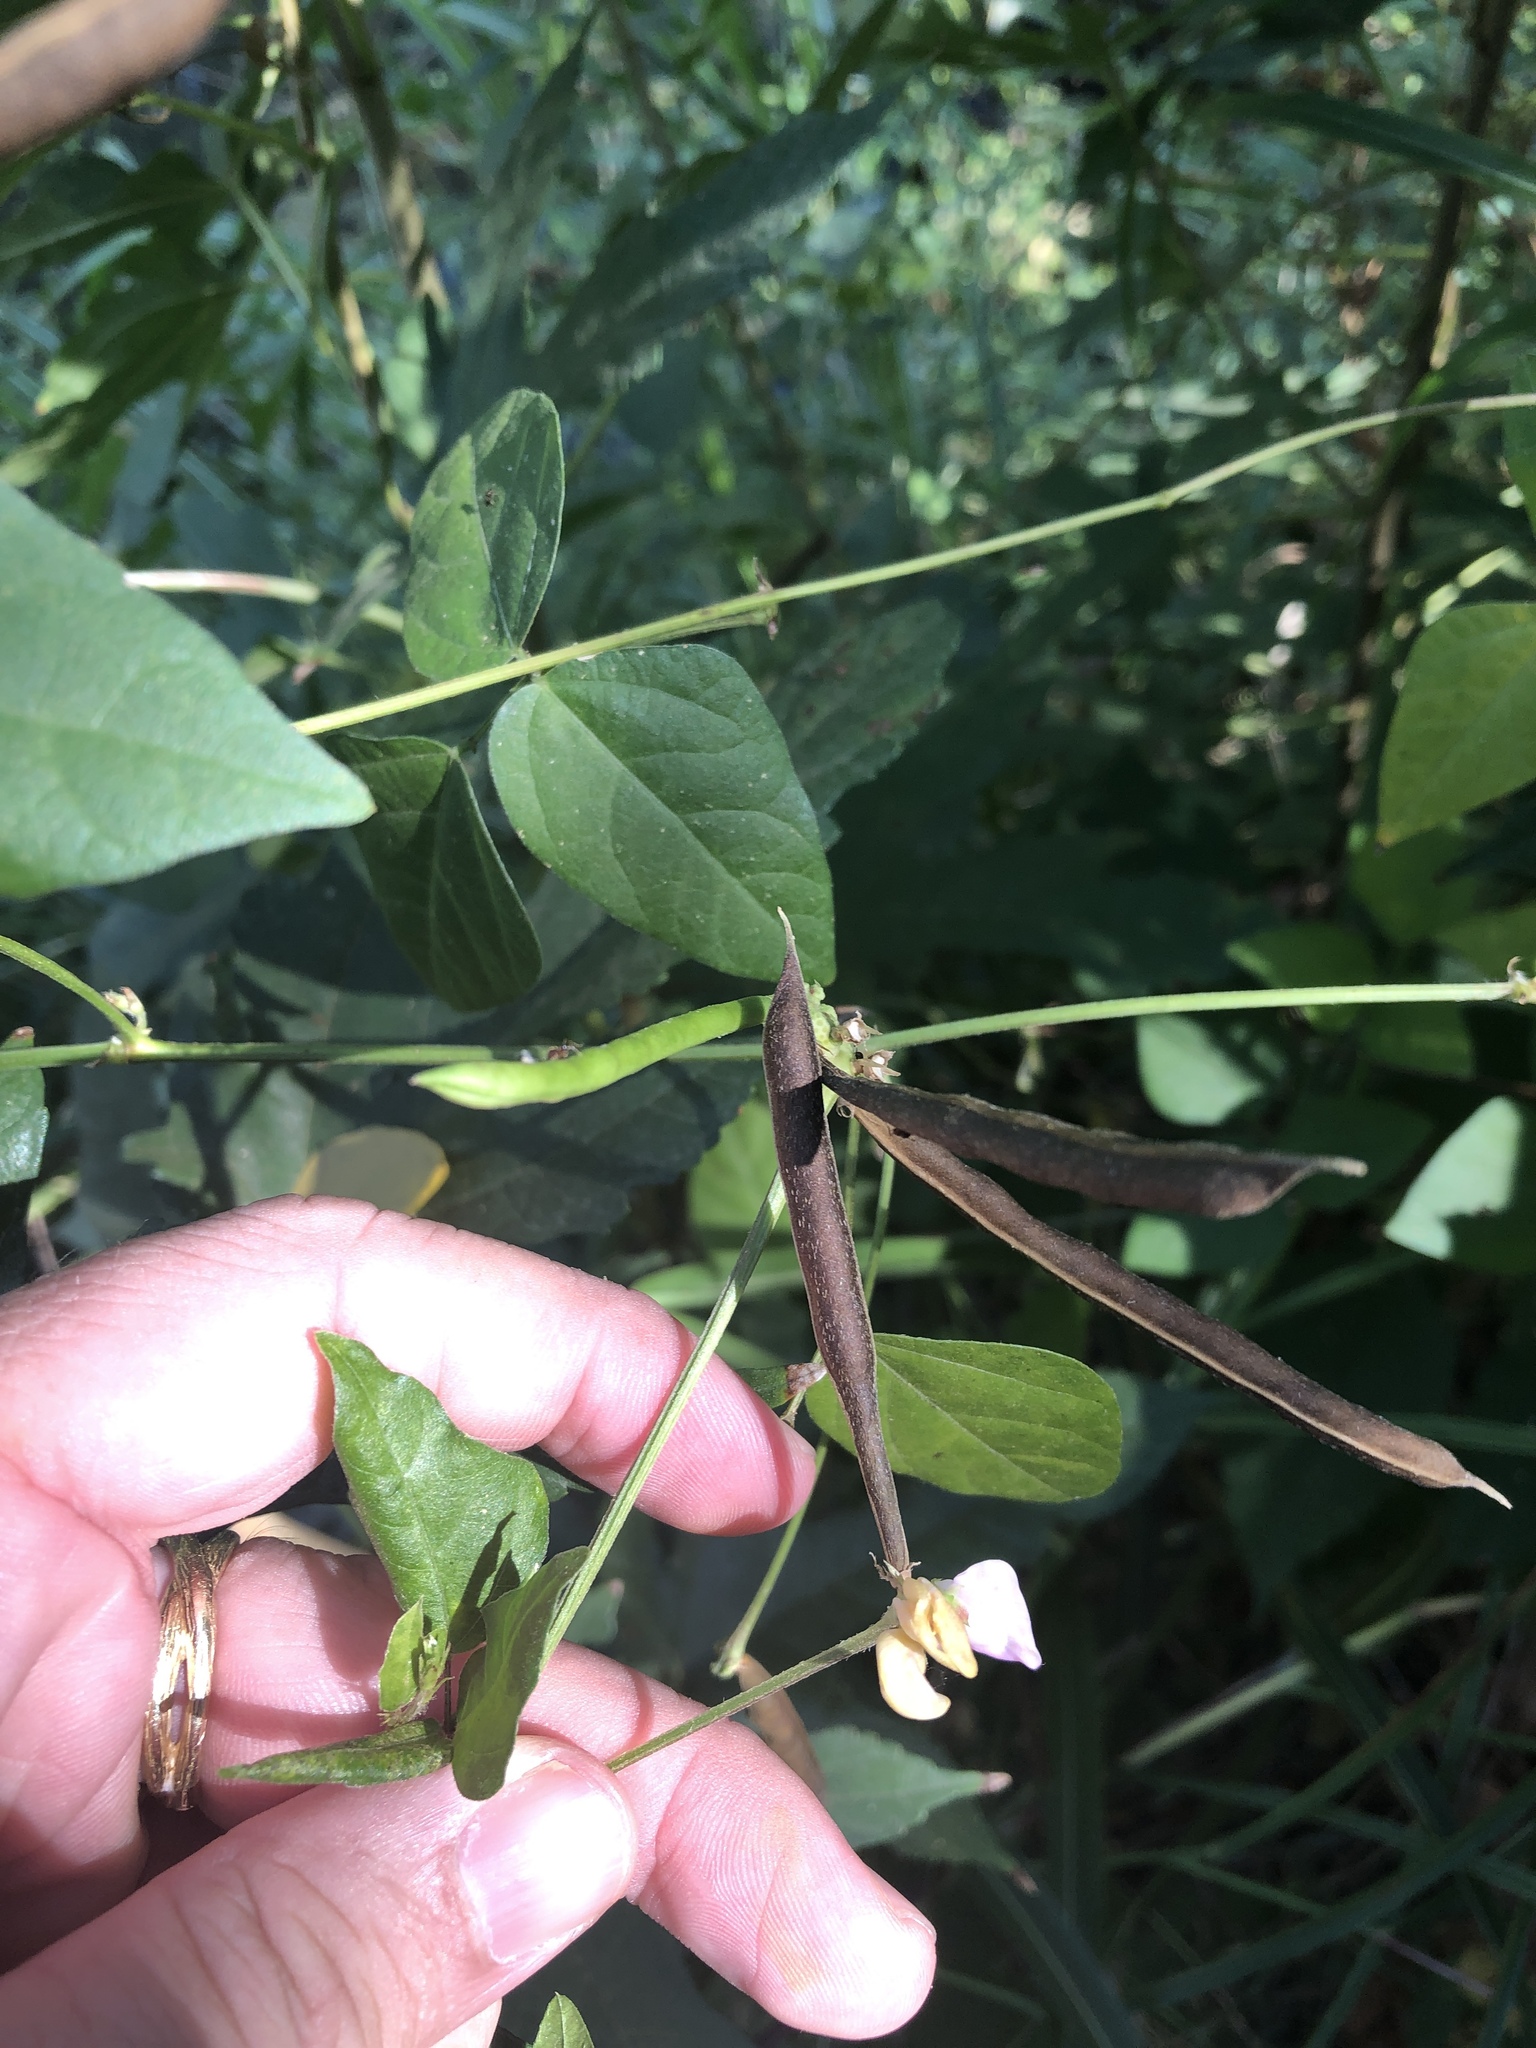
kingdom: Plantae
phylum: Tracheophyta
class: Magnoliopsida
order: Fabales
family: Fabaceae
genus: Strophostyles
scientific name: Strophostyles helvola
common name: Trailing wild bean
